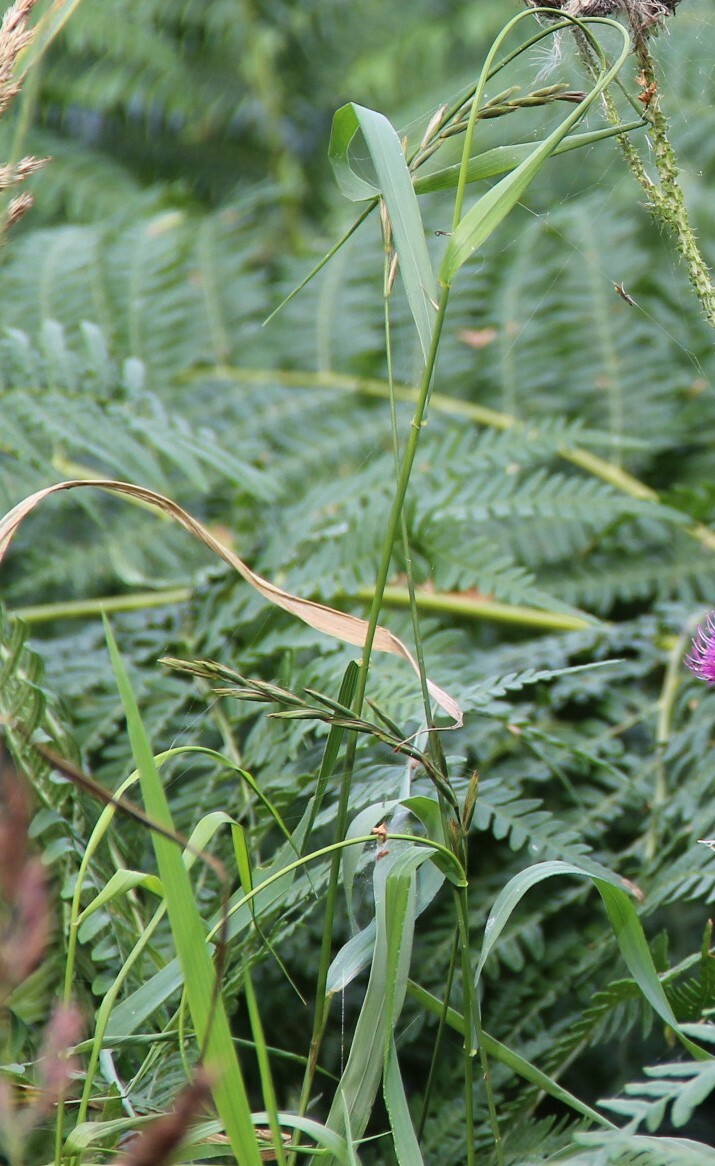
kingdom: Plantae
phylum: Tracheophyta
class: Liliopsida
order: Poales
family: Poaceae
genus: Elymus
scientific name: Elymus repens
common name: Quackgrass
